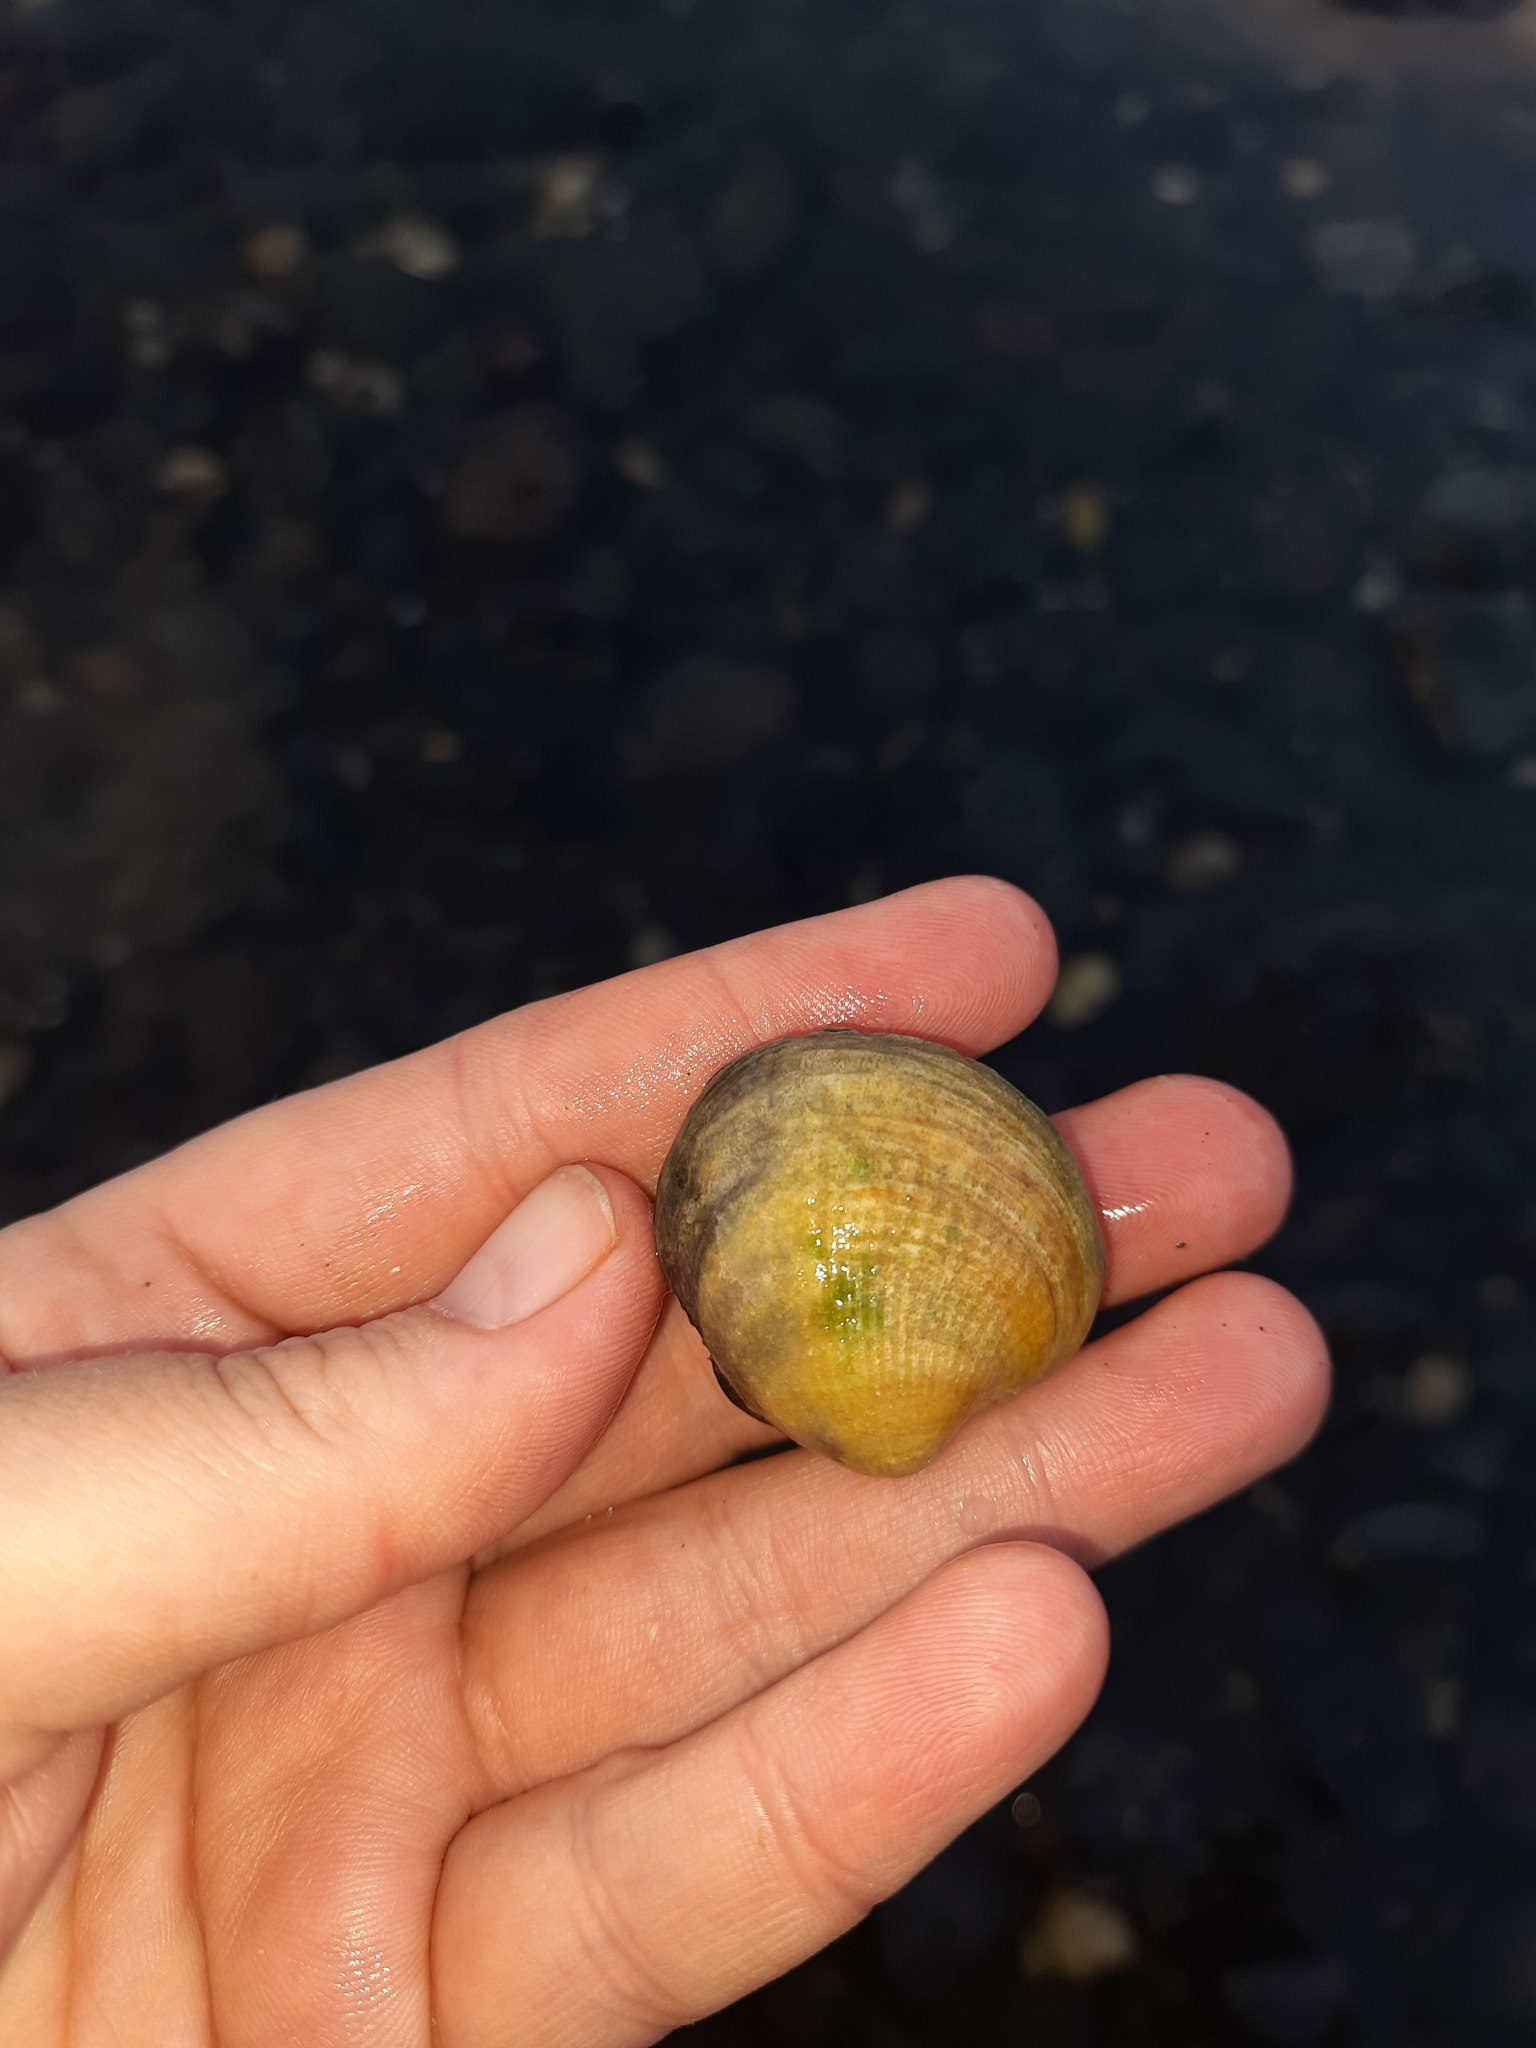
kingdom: Animalia
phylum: Mollusca
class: Bivalvia
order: Venerida
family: Veneridae
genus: Austrovenus
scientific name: Austrovenus stutchburyi
